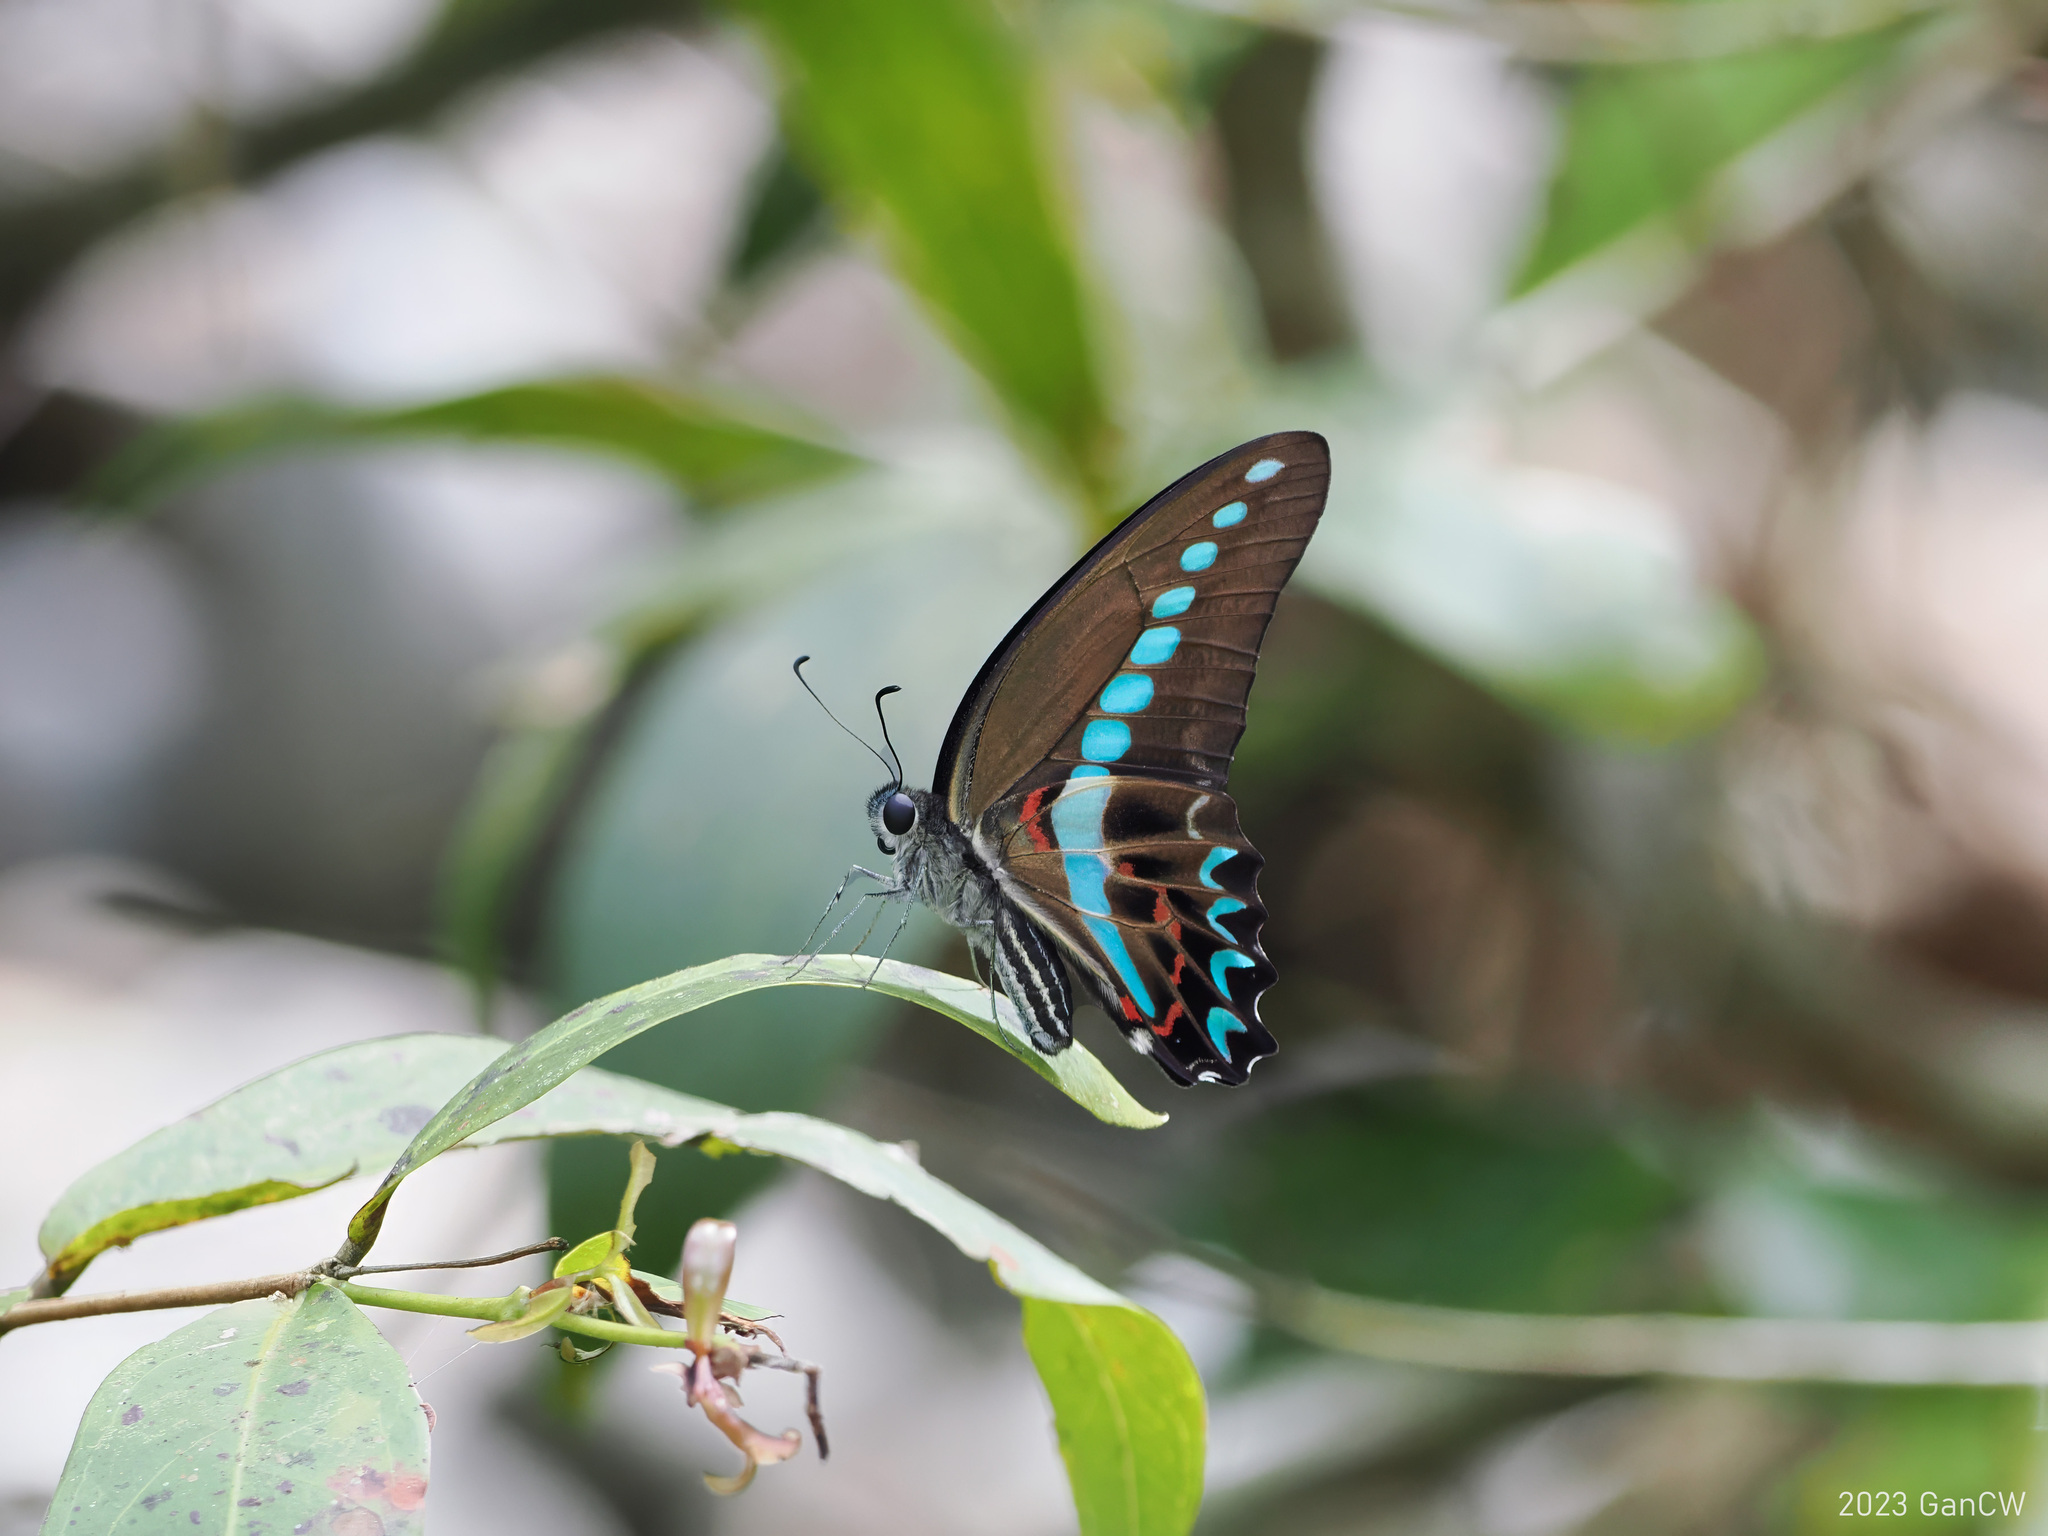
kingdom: Animalia
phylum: Arthropoda
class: Insecta
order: Lepidoptera
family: Papilionidae
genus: Graphium
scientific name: Graphium milon
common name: Milon's swallowtail
